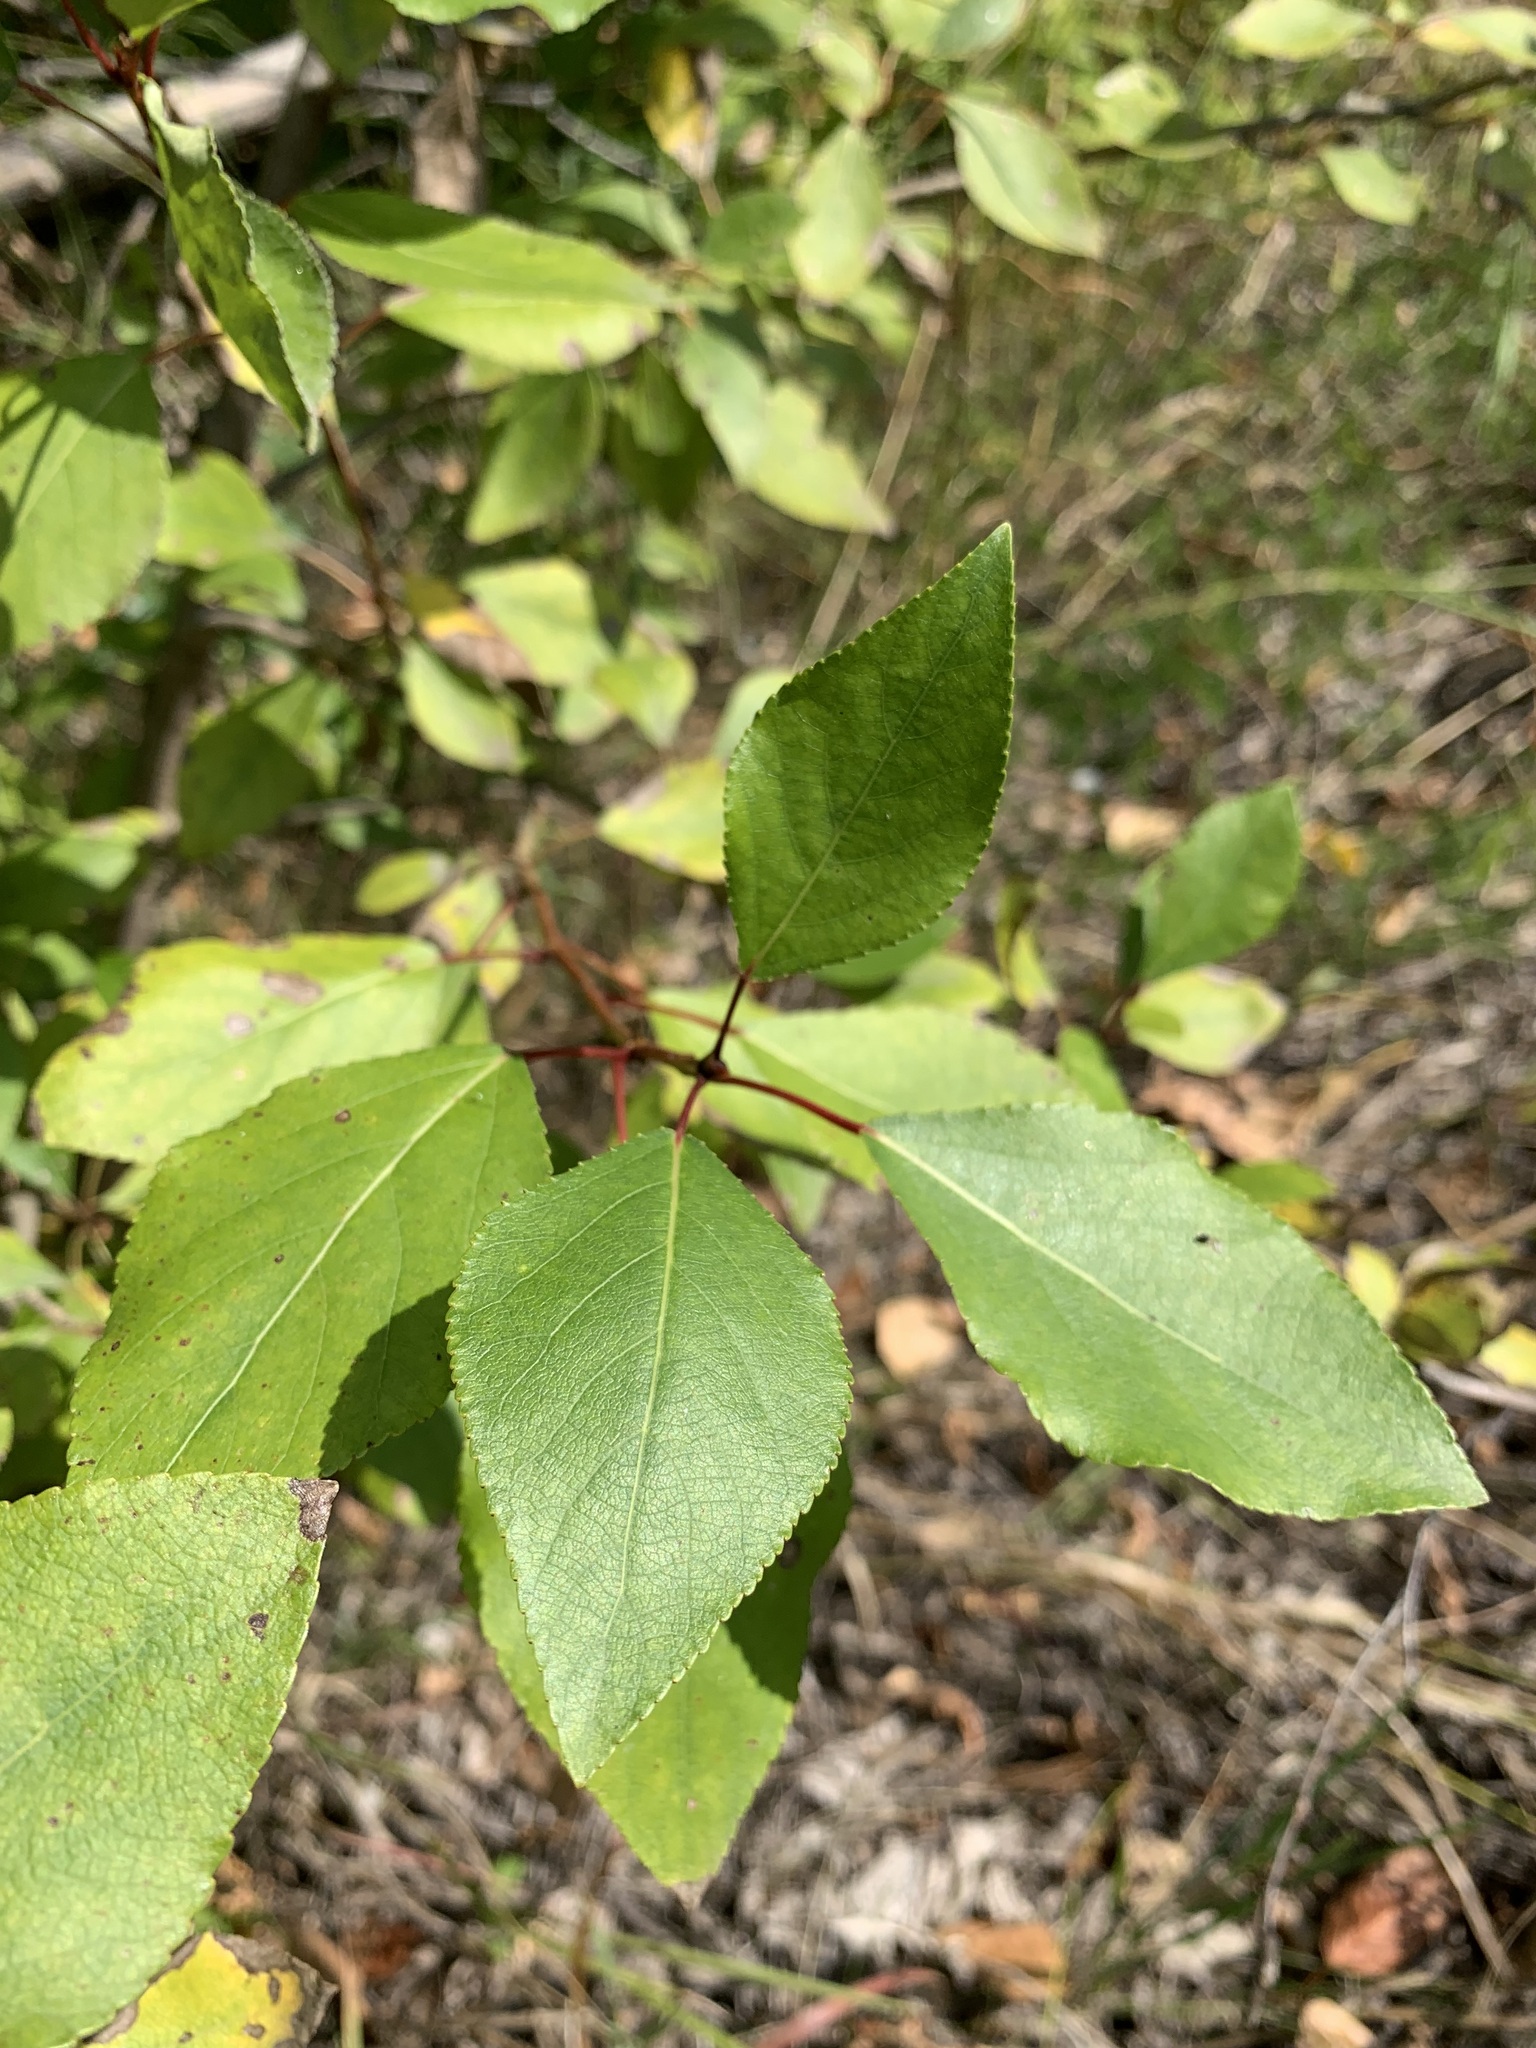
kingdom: Plantae
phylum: Tracheophyta
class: Magnoliopsida
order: Malpighiales
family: Salicaceae
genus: Populus
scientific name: Populus sibirica
